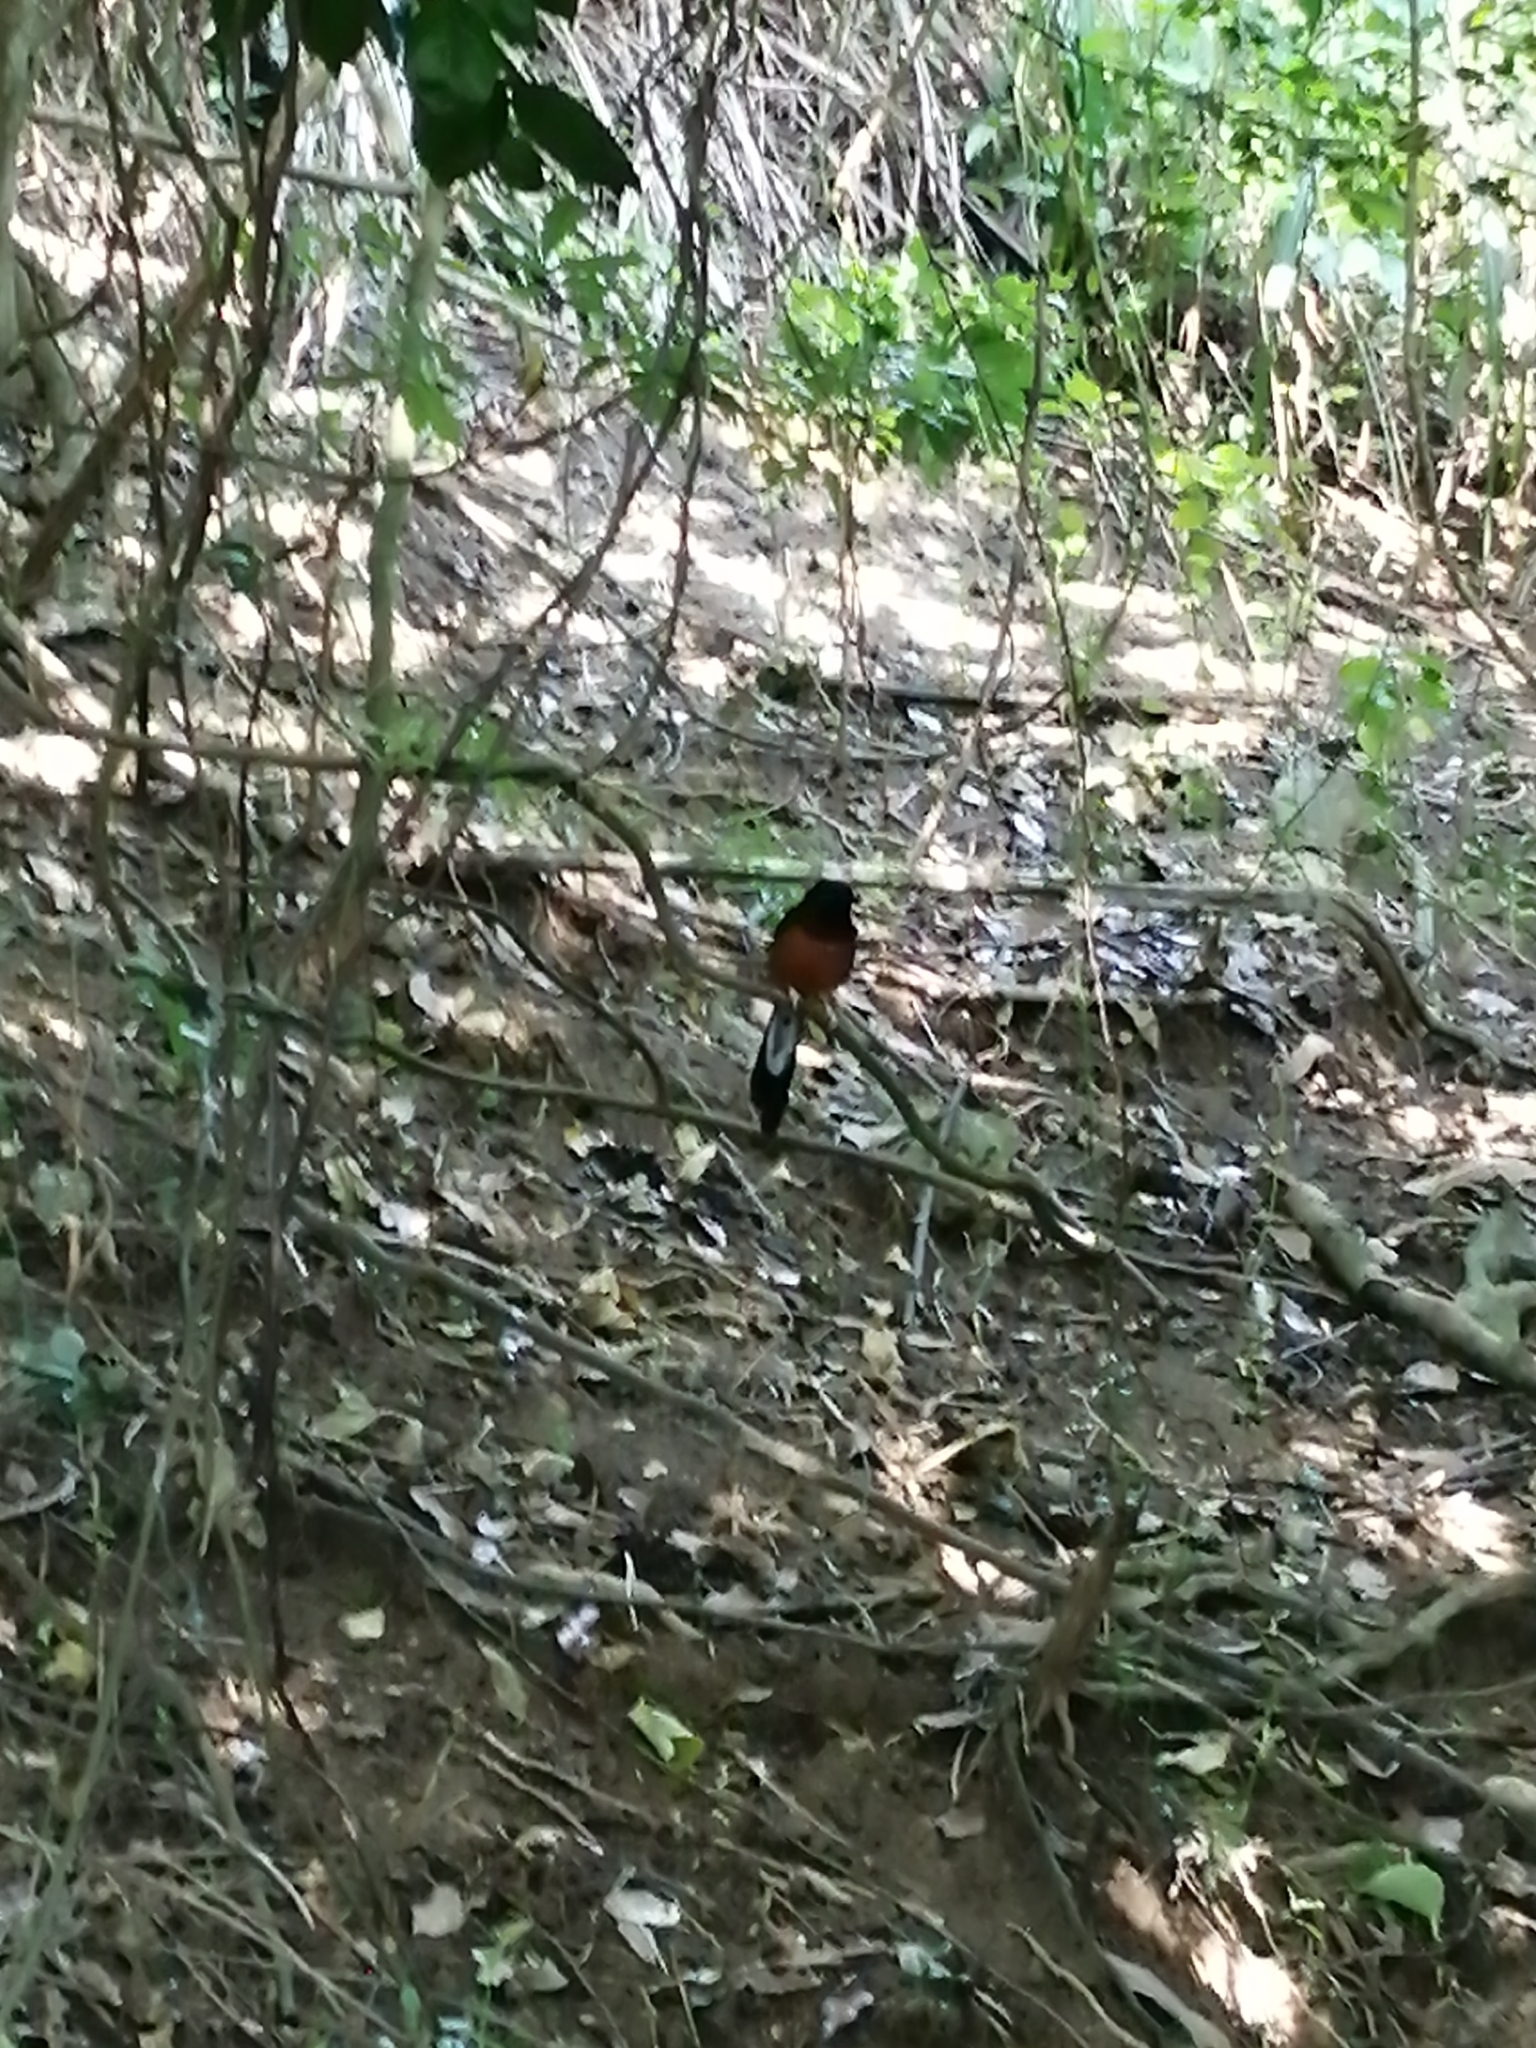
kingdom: Animalia
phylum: Chordata
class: Aves
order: Passeriformes
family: Muscicapidae
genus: Copsychus
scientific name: Copsychus malabaricus
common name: White-rumped shama
